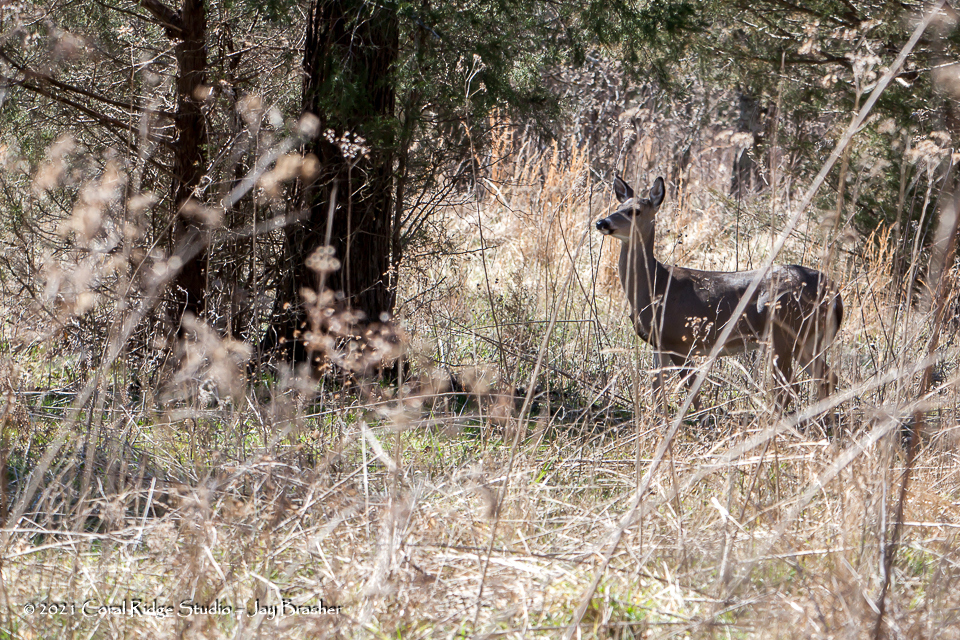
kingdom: Animalia
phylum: Chordata
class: Mammalia
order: Artiodactyla
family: Cervidae
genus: Odocoileus
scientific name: Odocoileus virginianus
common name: White-tailed deer
